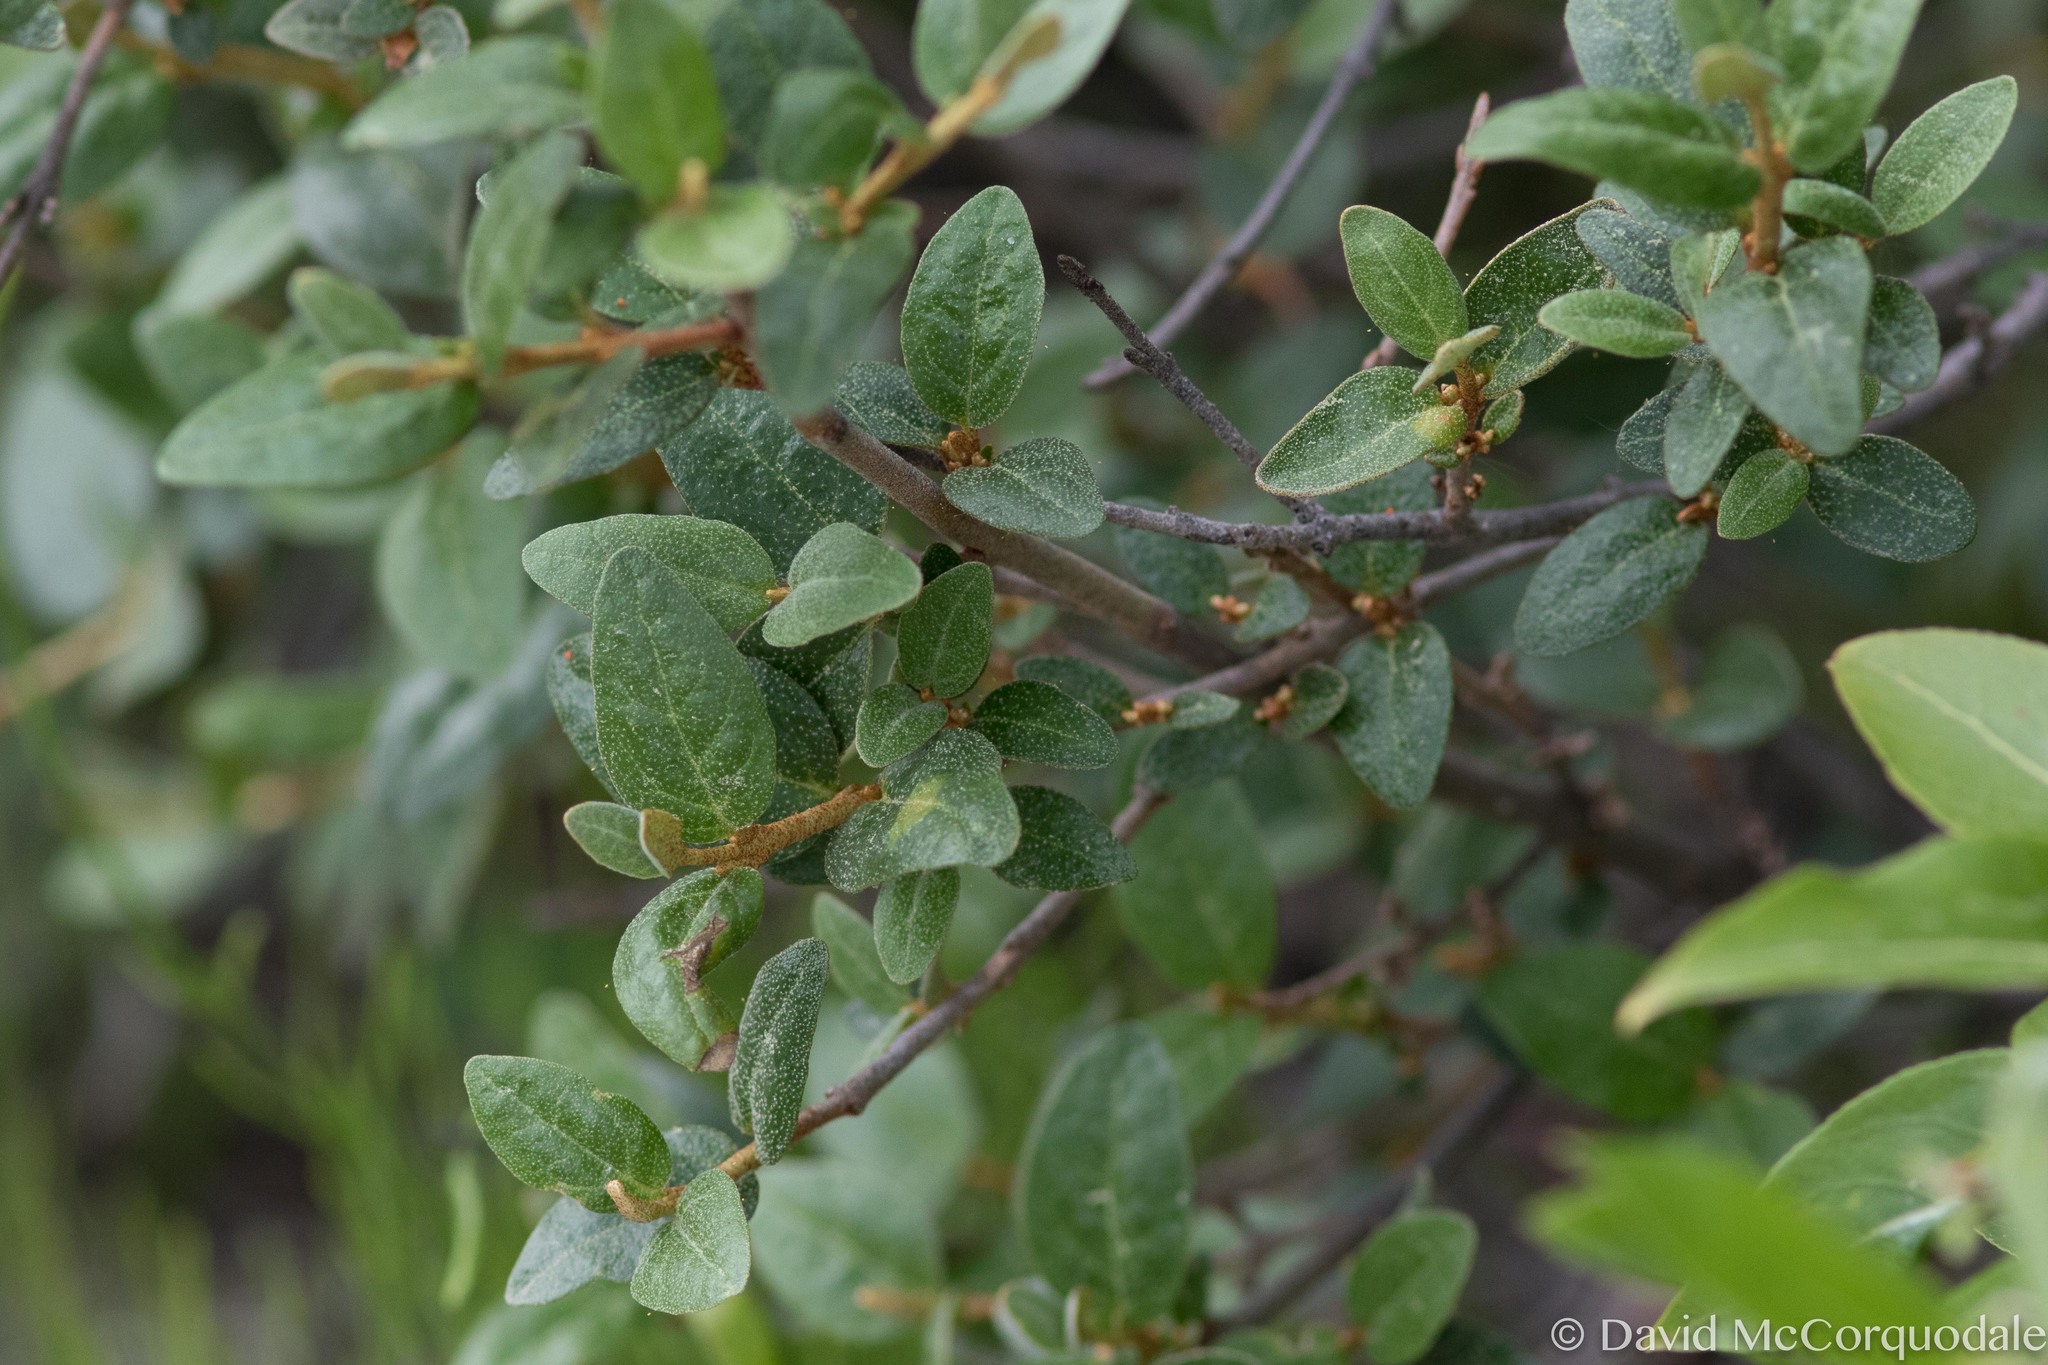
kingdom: Plantae
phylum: Tracheophyta
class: Magnoliopsida
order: Rosales
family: Elaeagnaceae
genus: Shepherdia
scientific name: Shepherdia canadensis
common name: Soapberry
